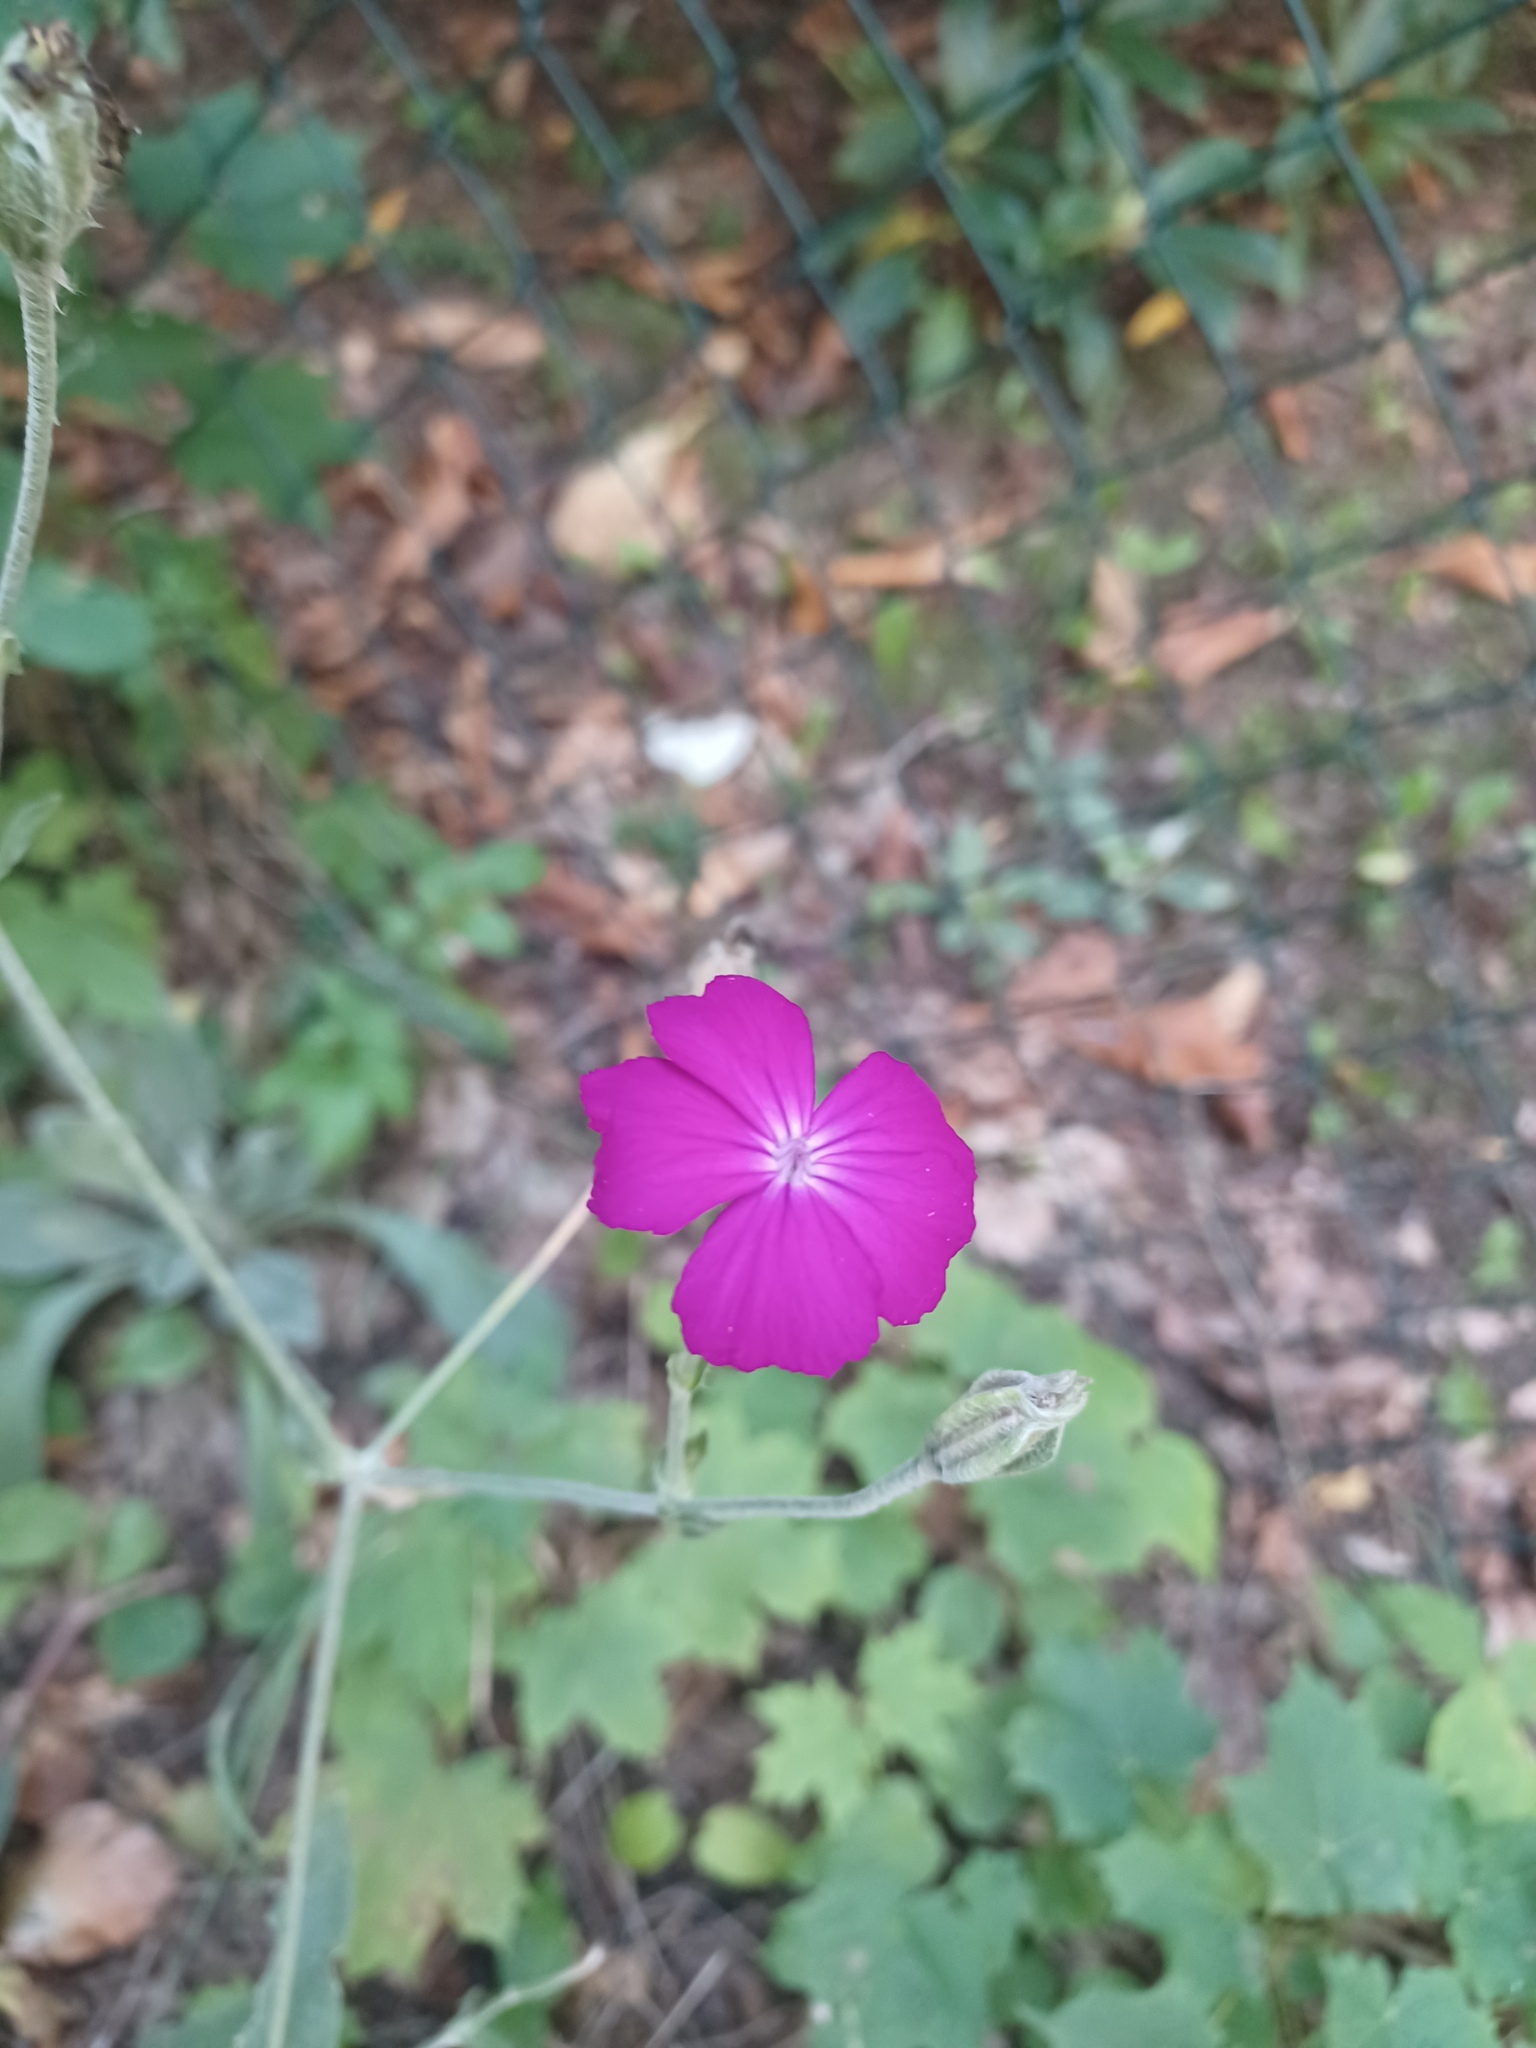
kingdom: Plantae
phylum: Tracheophyta
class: Magnoliopsida
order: Caryophyllales
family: Caryophyllaceae
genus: Silene
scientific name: Silene coronaria
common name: Rose campion
